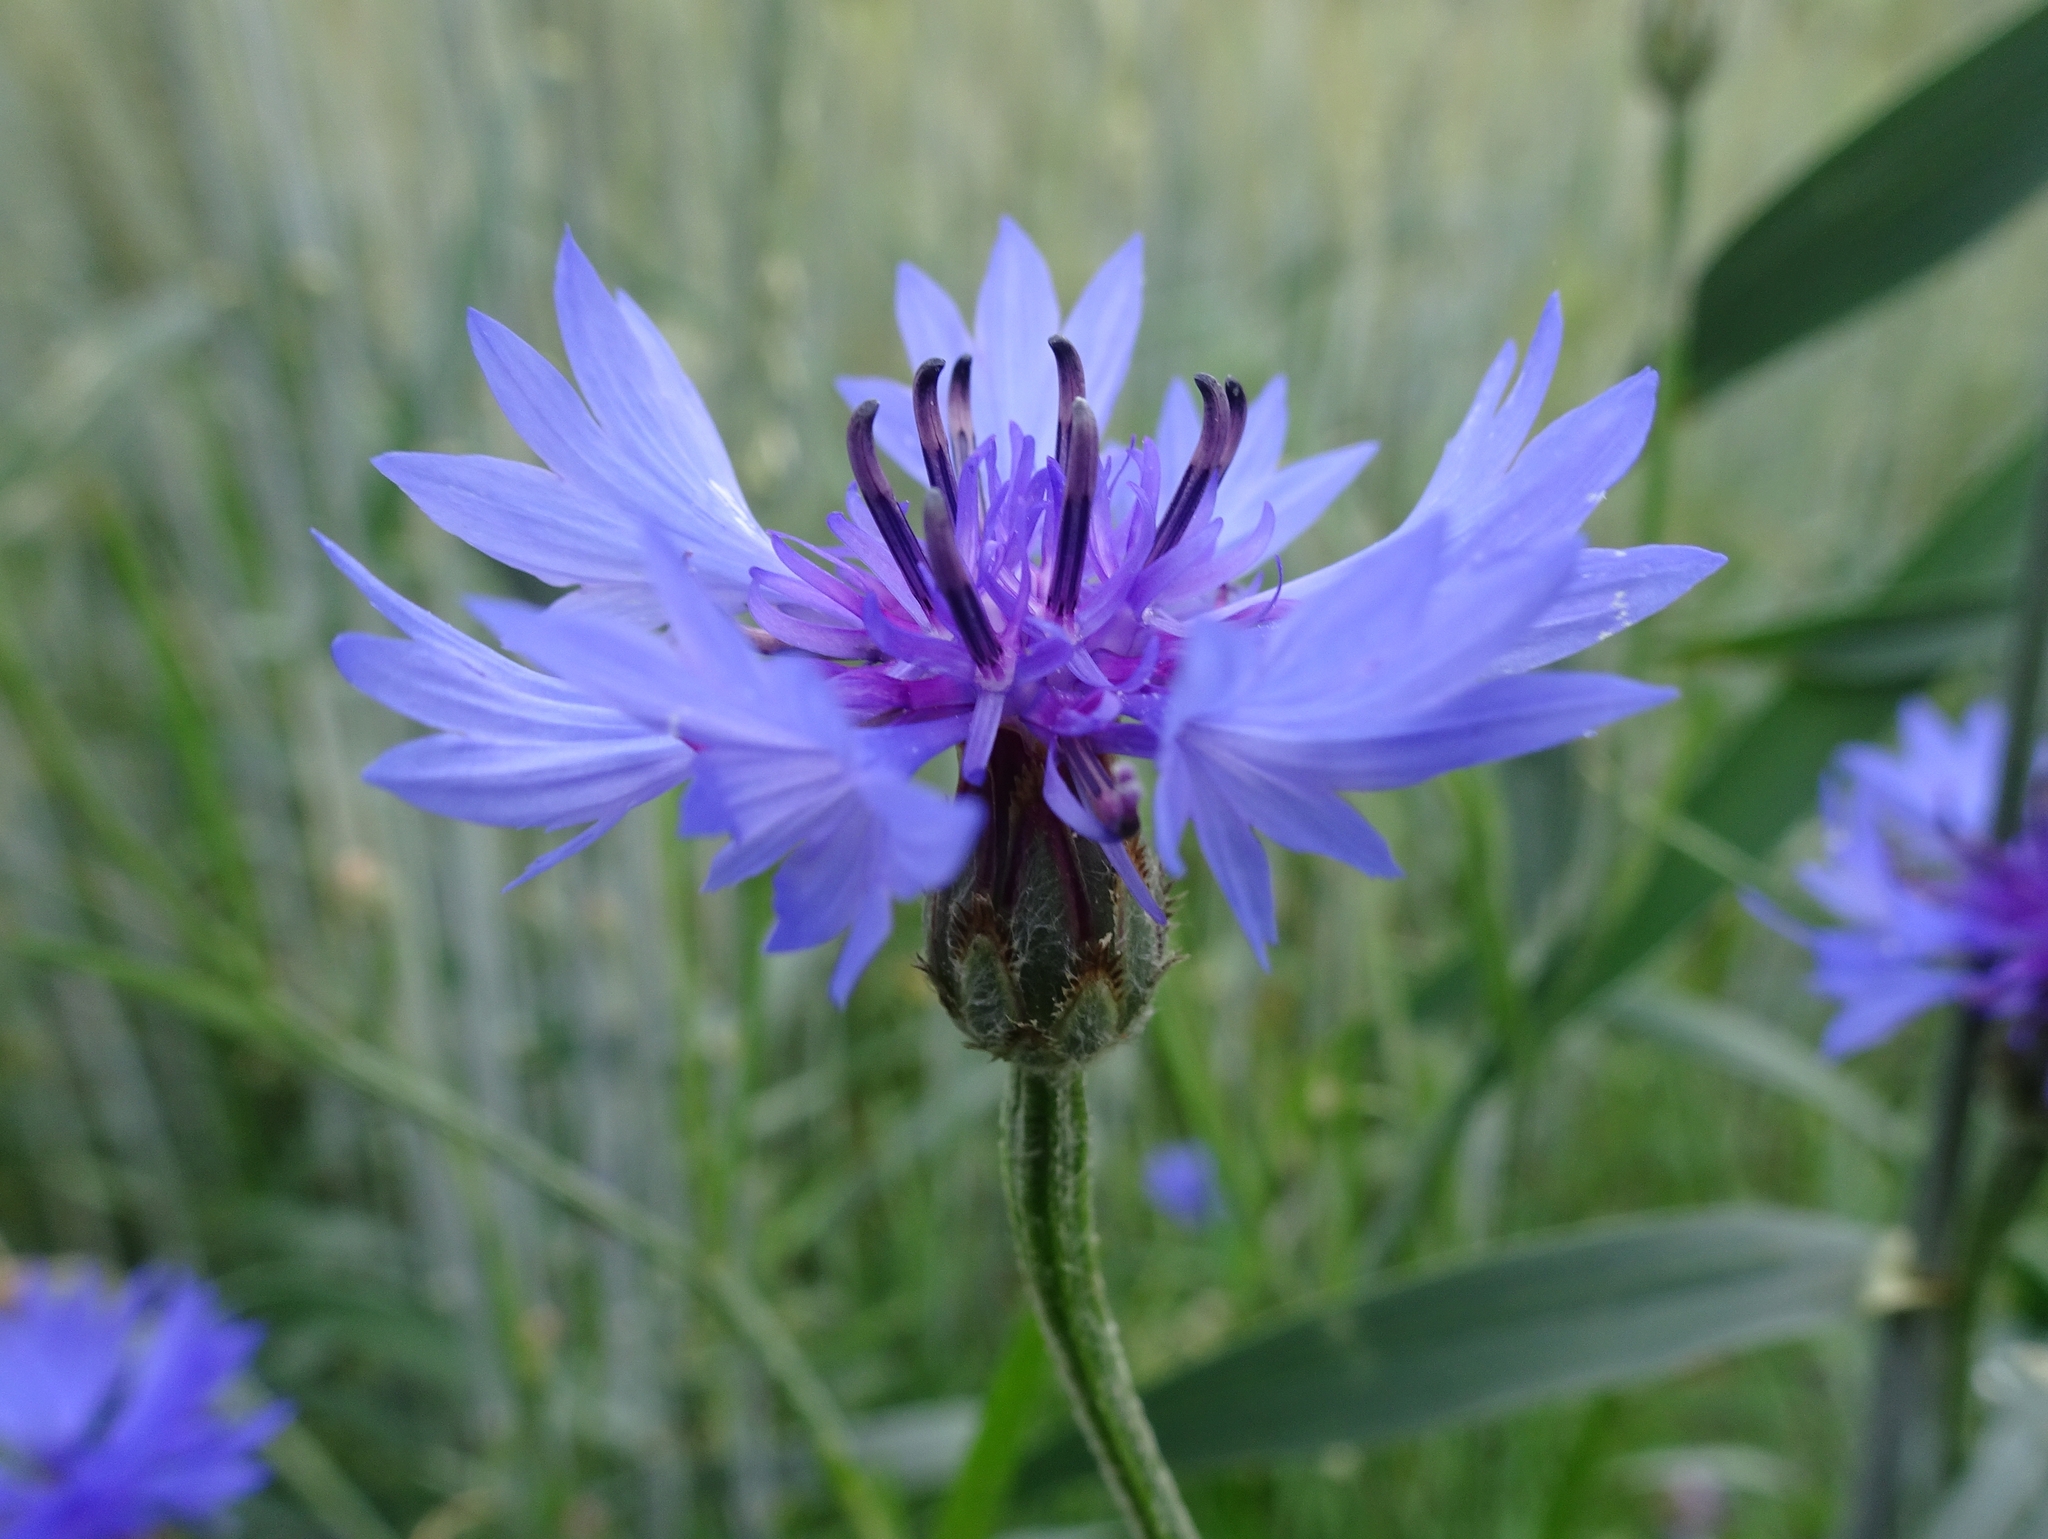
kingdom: Plantae
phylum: Tracheophyta
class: Magnoliopsida
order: Asterales
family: Asteraceae
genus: Centaurea
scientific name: Centaurea cyanus
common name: Cornflower
